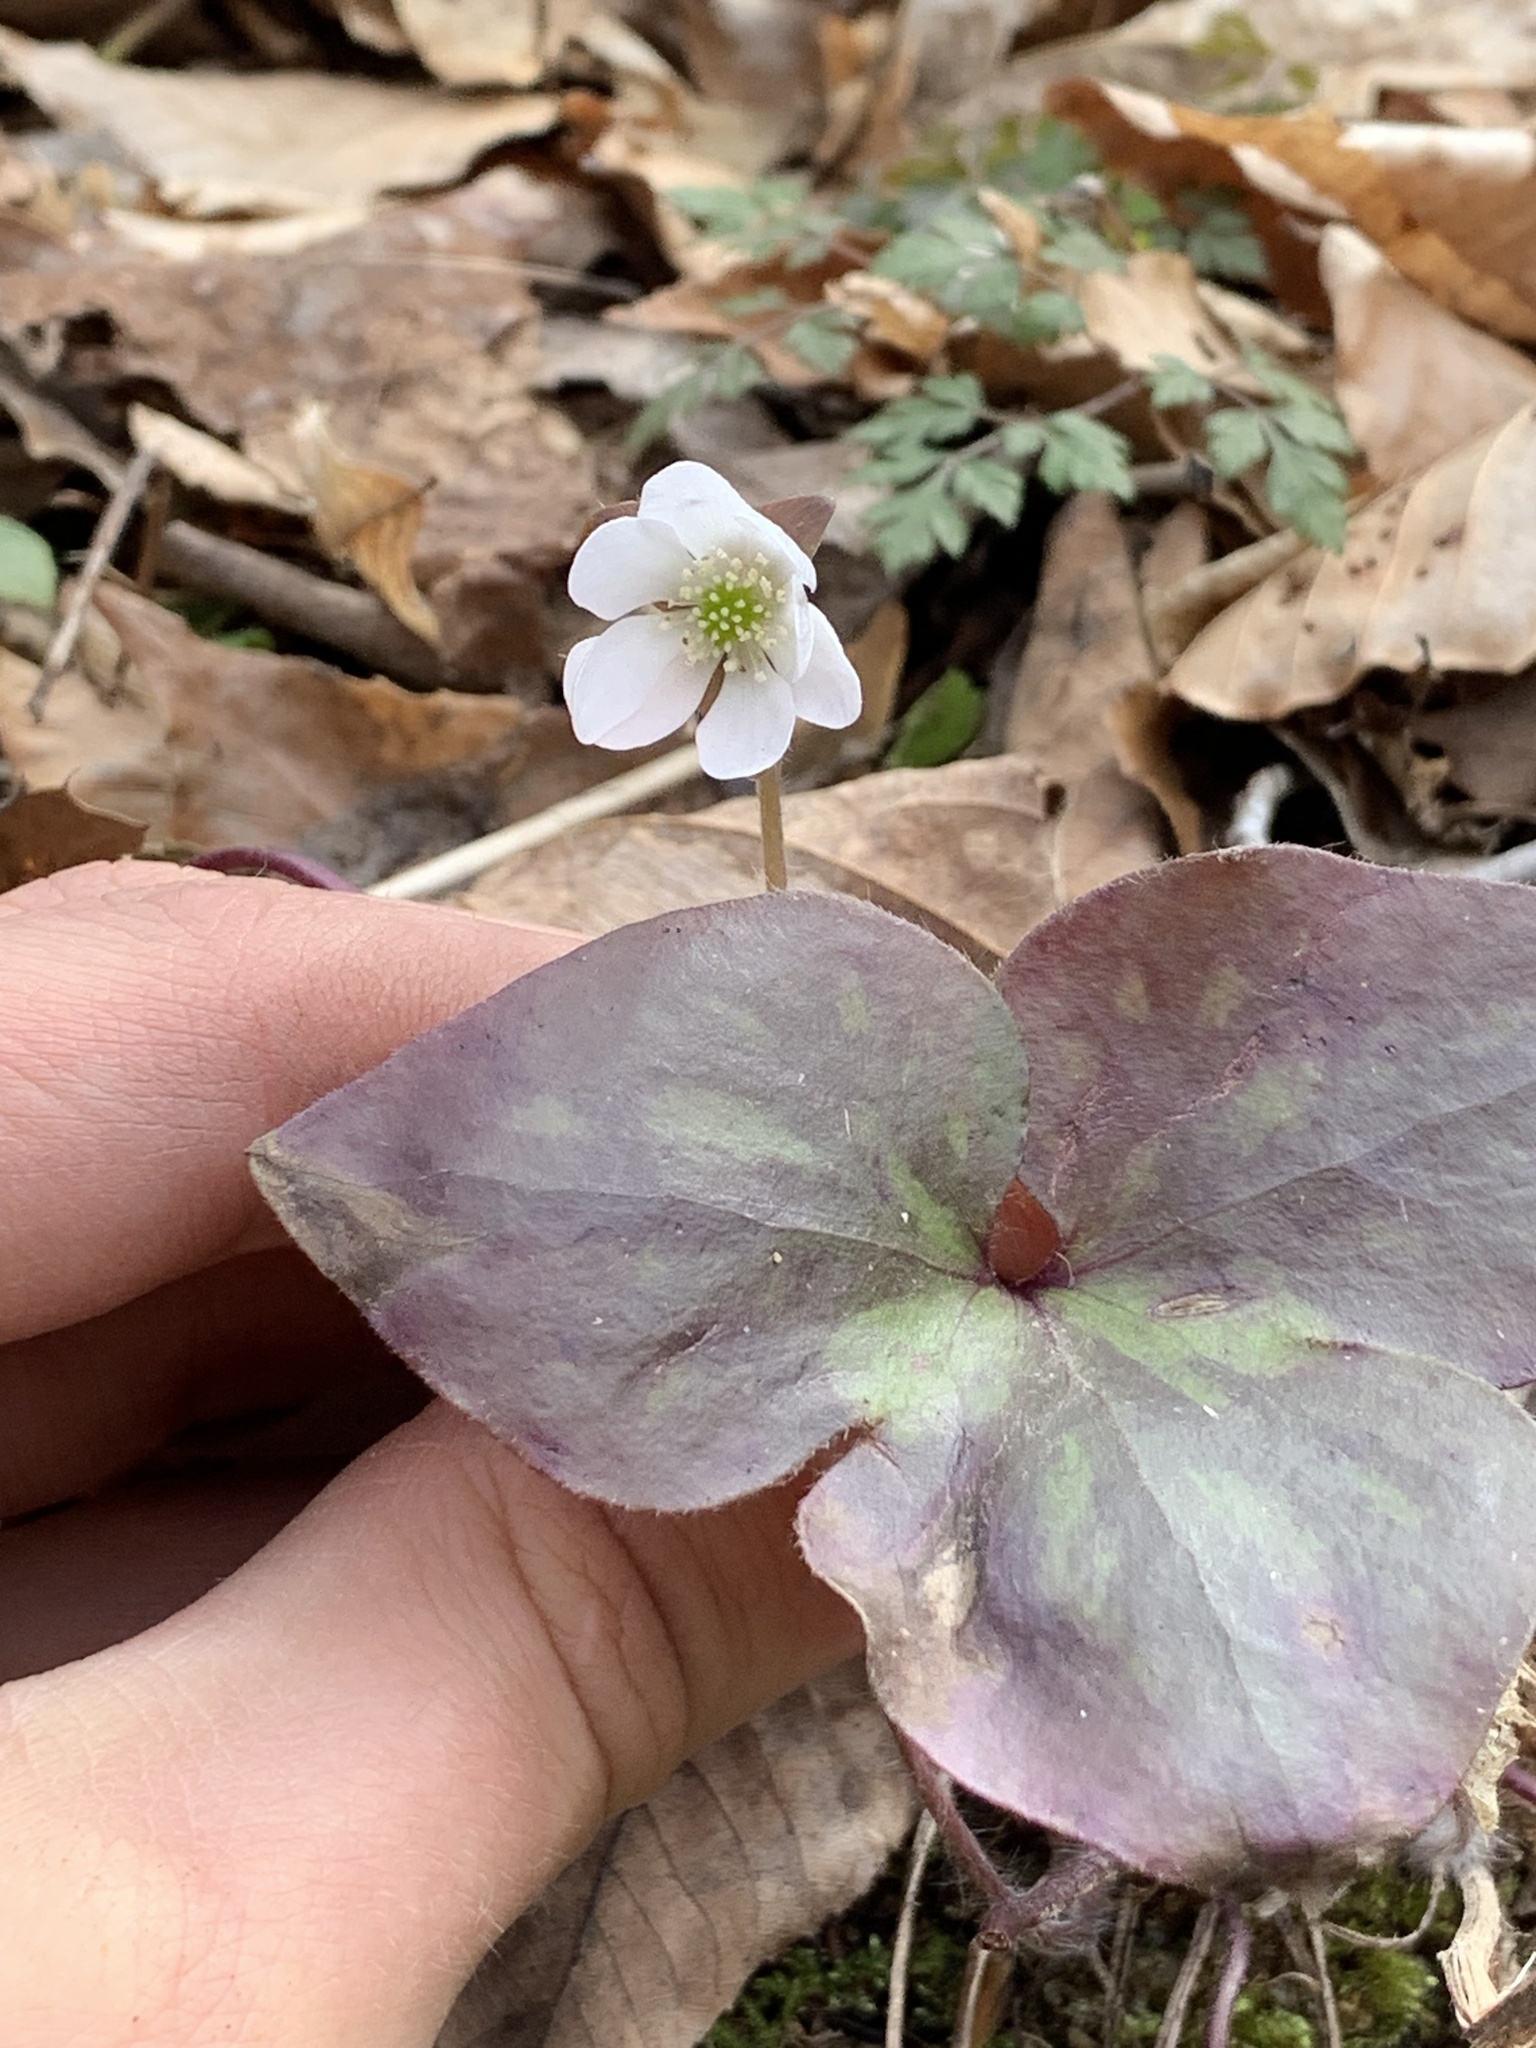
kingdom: Plantae
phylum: Tracheophyta
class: Magnoliopsida
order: Ranunculales
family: Ranunculaceae
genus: Hepatica
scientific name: Hepatica acutiloba
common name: Sharp-lobed hepatica
